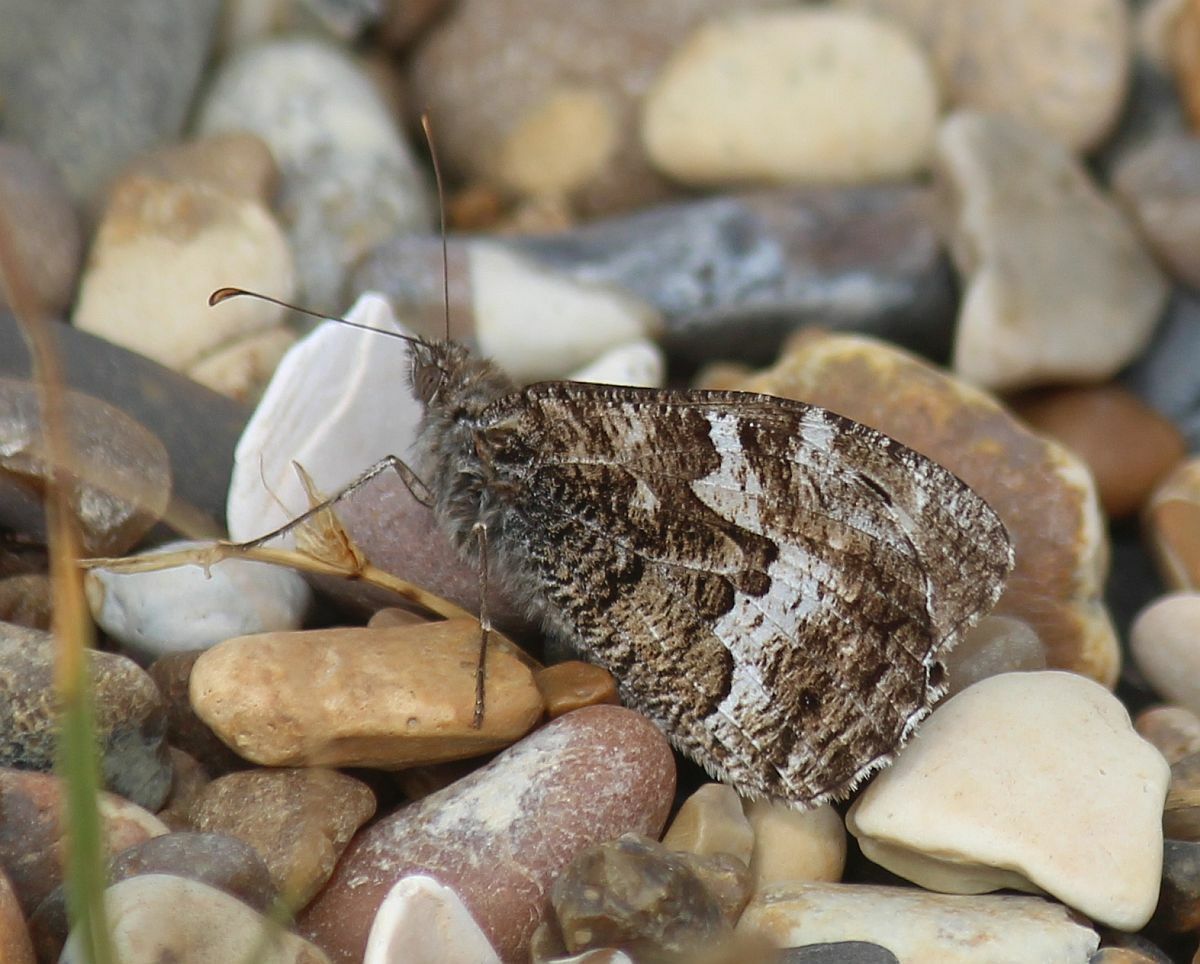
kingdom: Animalia
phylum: Arthropoda
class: Insecta
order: Lepidoptera
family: Nymphalidae
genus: Hipparchia
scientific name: Hipparchia semele
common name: Grayling
